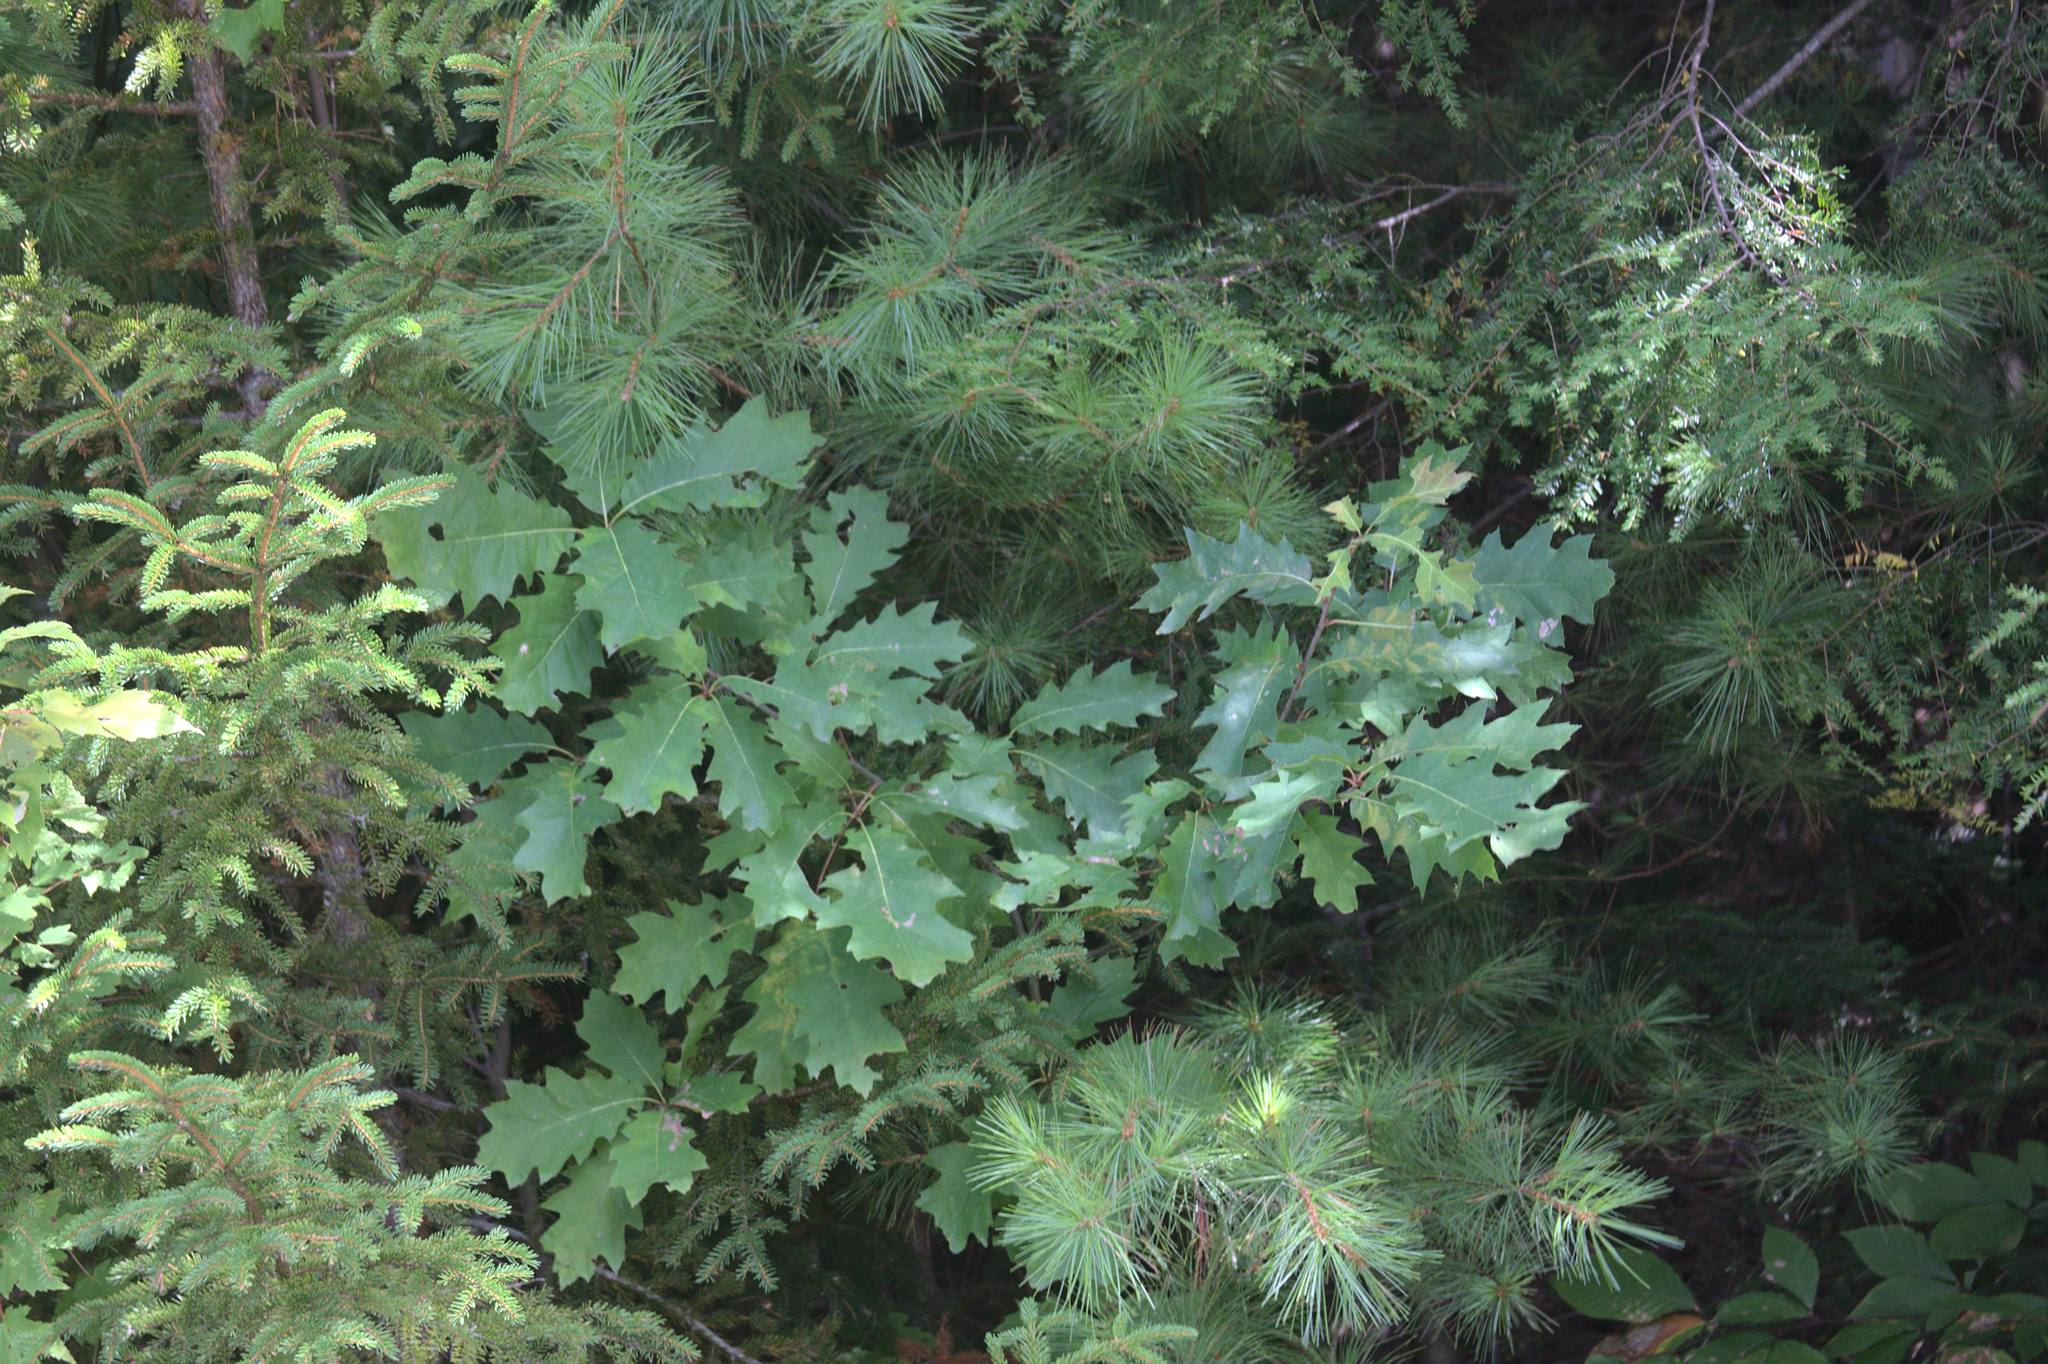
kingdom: Plantae
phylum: Tracheophyta
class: Pinopsida
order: Pinales
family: Pinaceae
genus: Pinus
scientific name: Pinus strobus
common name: Weymouth pine
